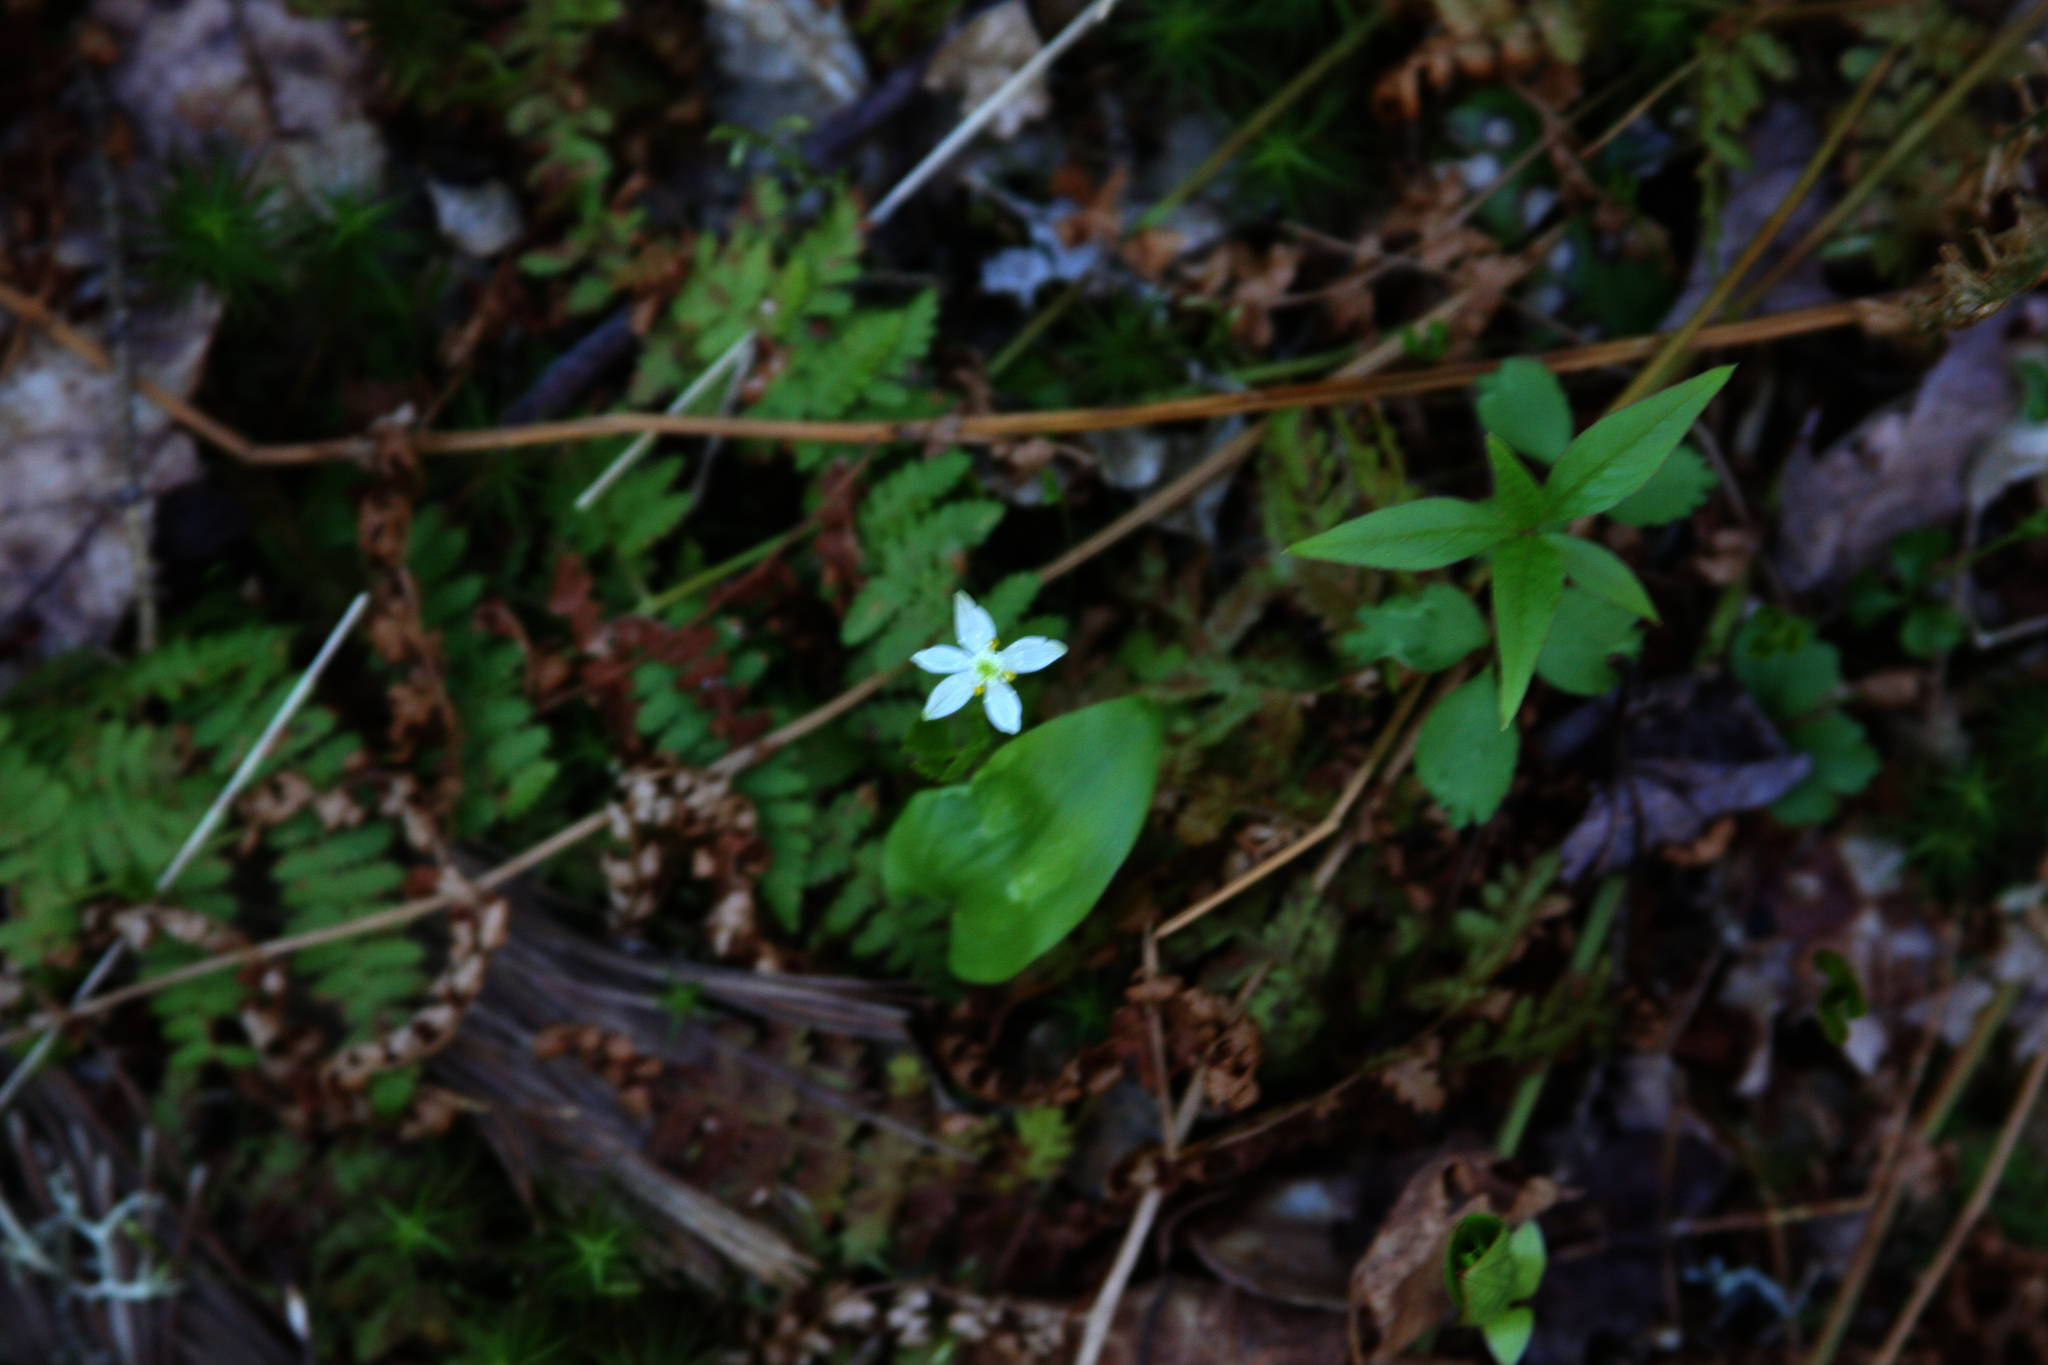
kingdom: Plantae
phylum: Tracheophyta
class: Magnoliopsida
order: Ranunculales
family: Ranunculaceae
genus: Coptis
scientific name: Coptis trifolia
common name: Canker-root
